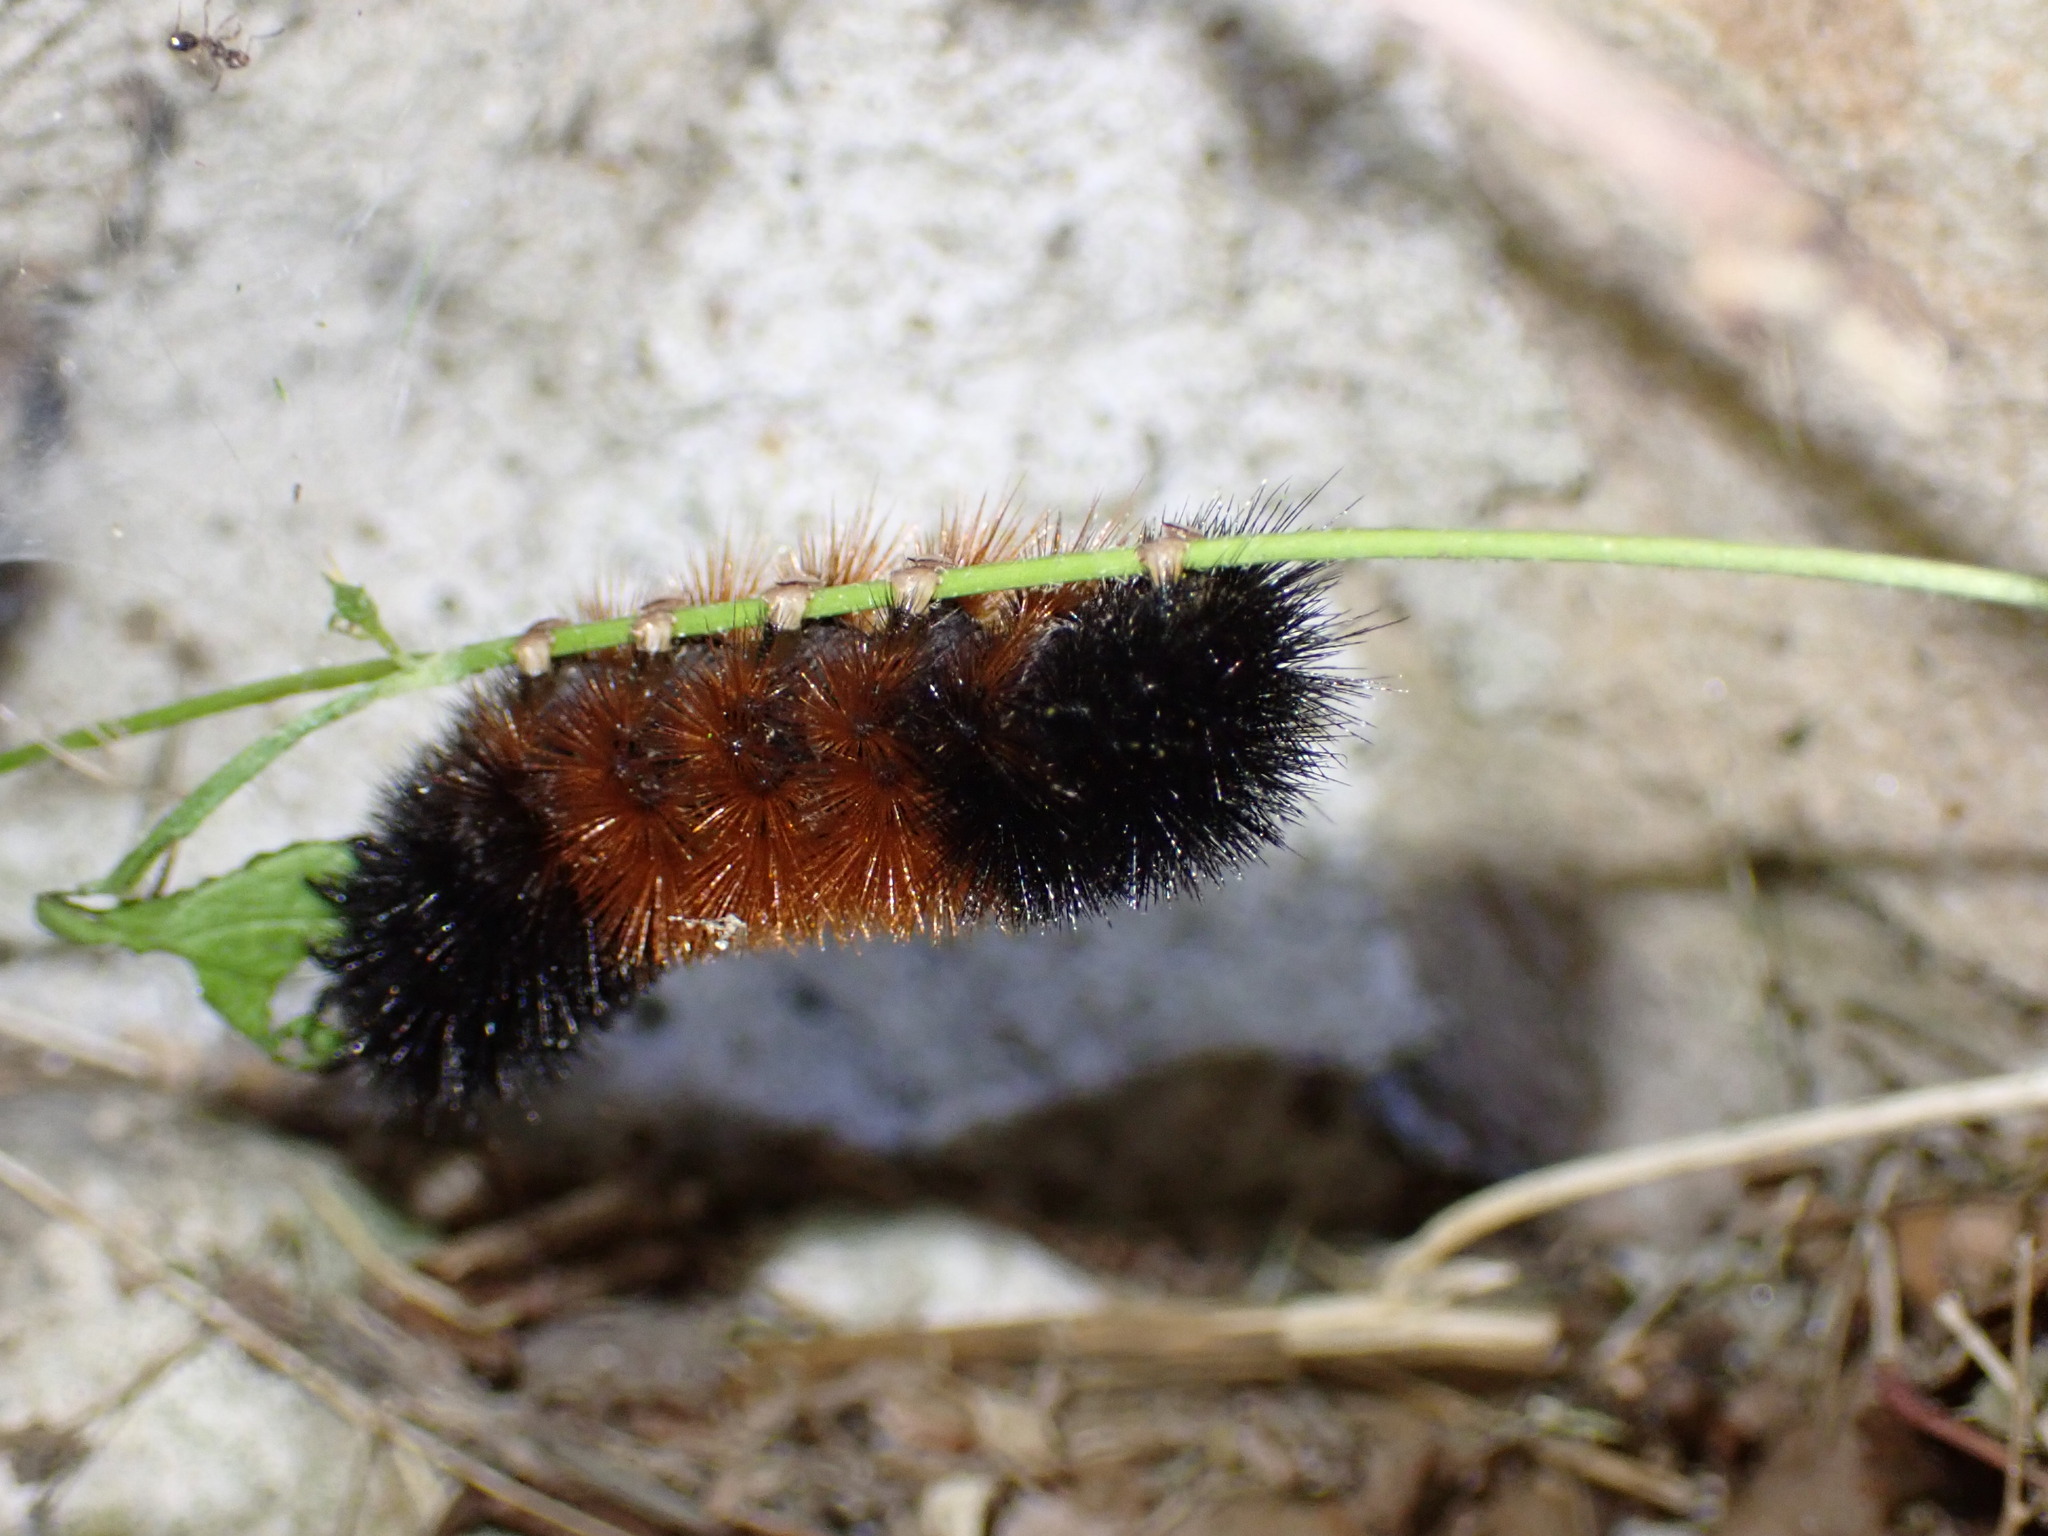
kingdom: Animalia
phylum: Arthropoda
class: Insecta
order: Lepidoptera
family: Erebidae
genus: Pyrrharctia
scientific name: Pyrrharctia isabella
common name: Isabella tiger moth
